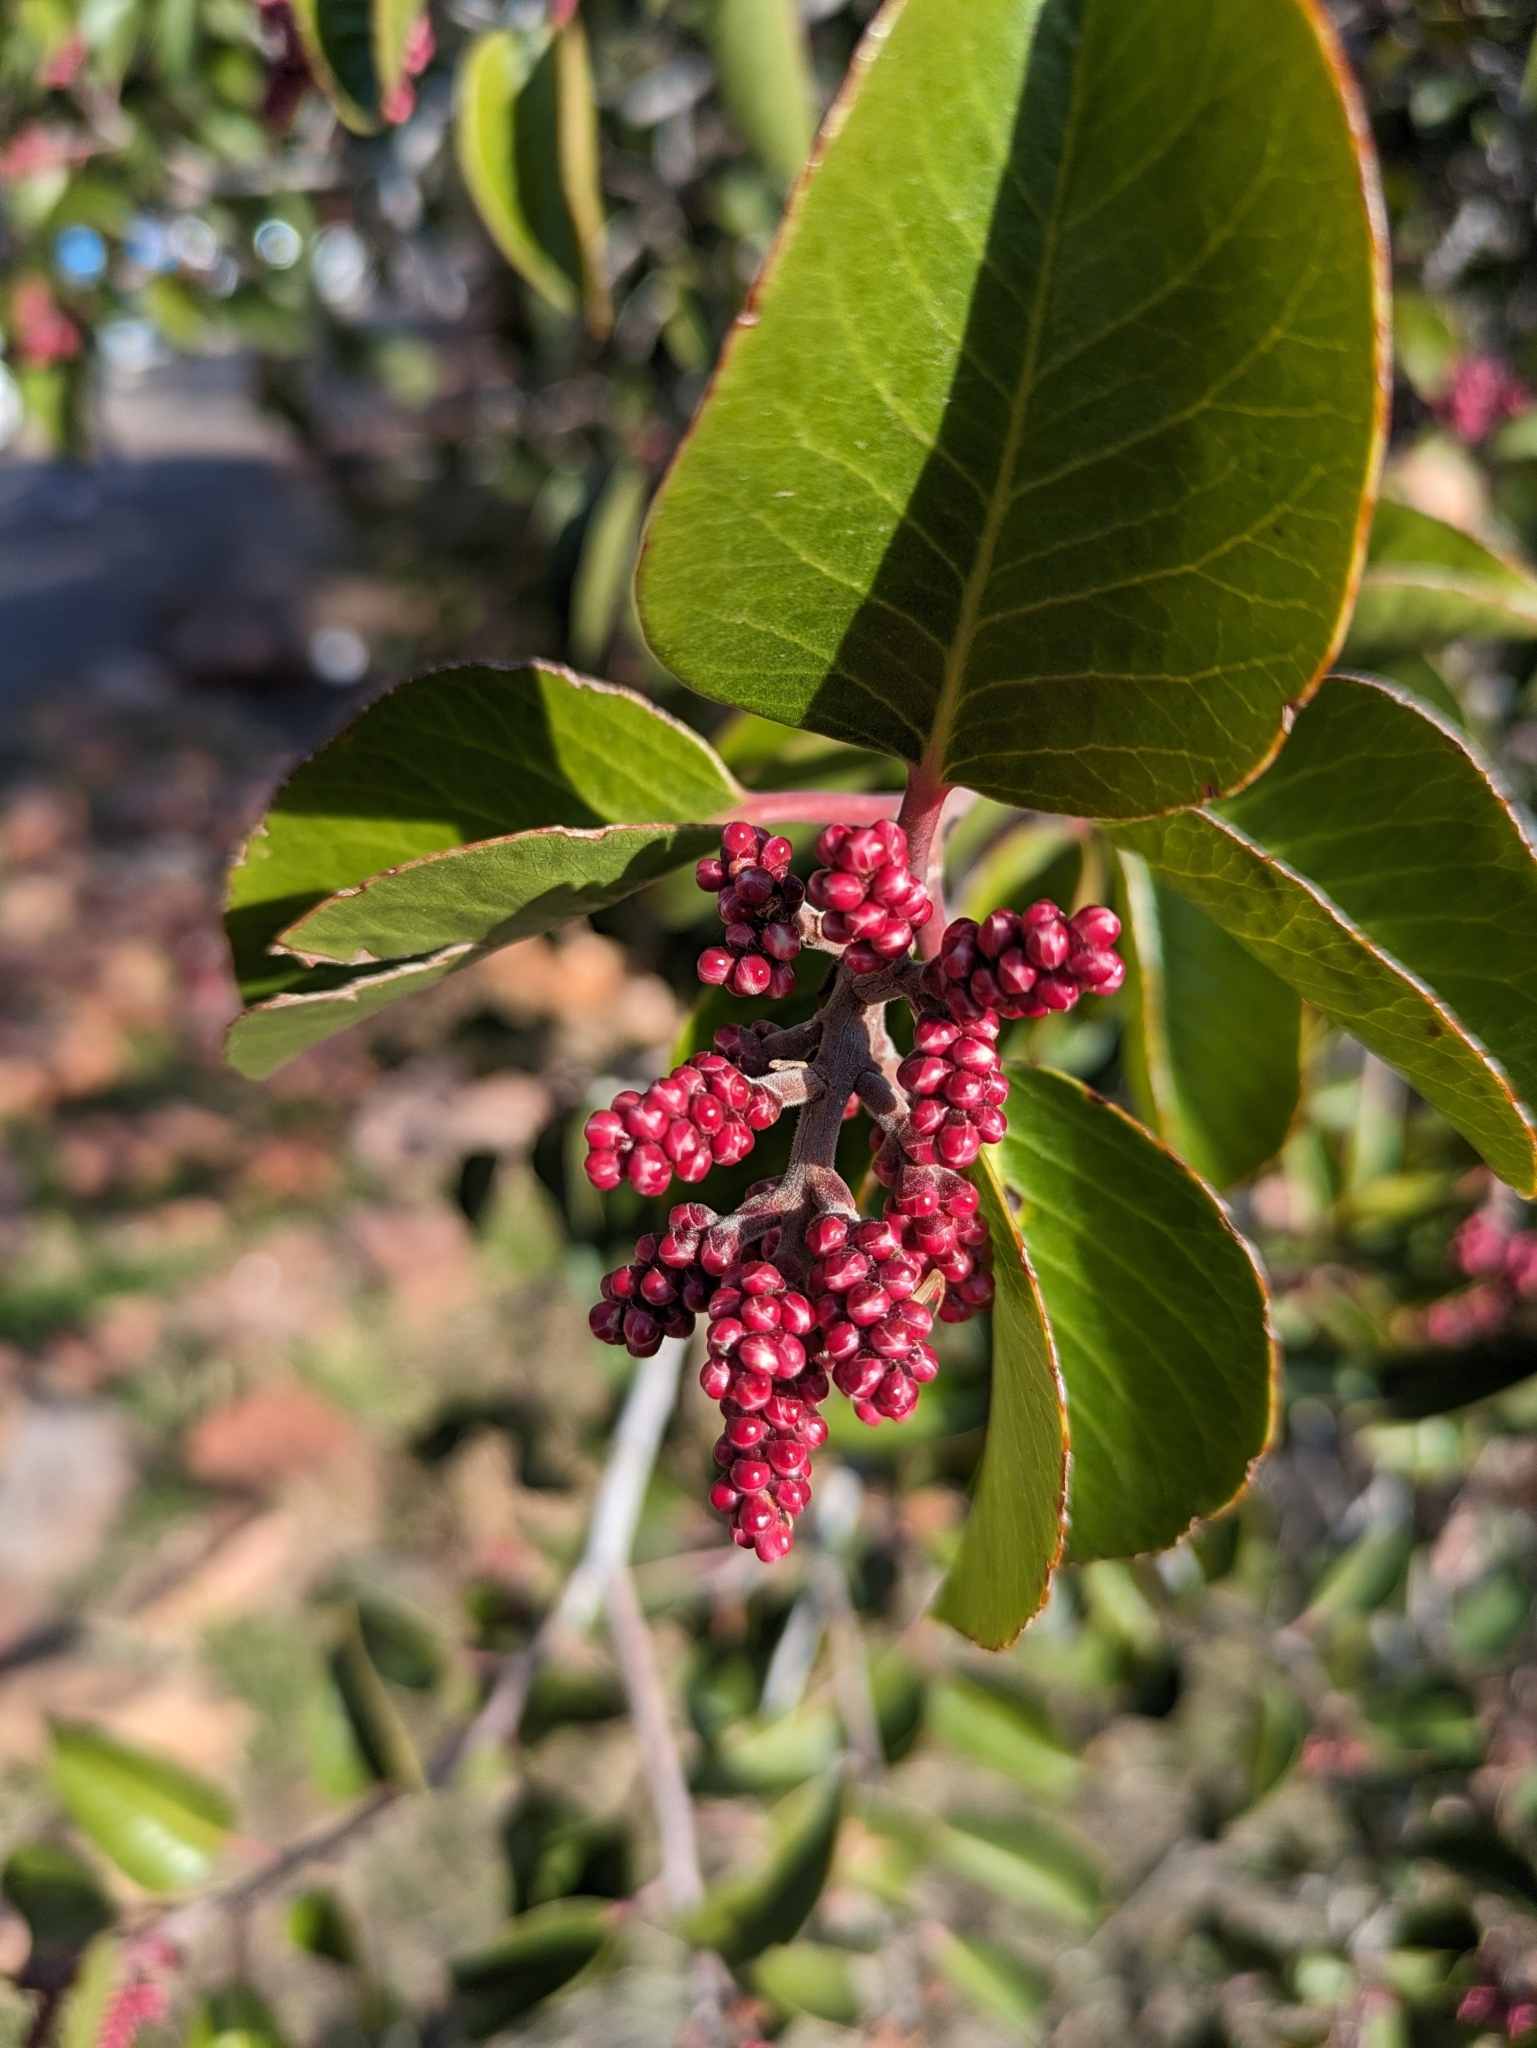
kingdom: Plantae
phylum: Tracheophyta
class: Magnoliopsida
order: Sapindales
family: Anacardiaceae
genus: Rhus
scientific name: Rhus ovata
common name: Sugar sumac
